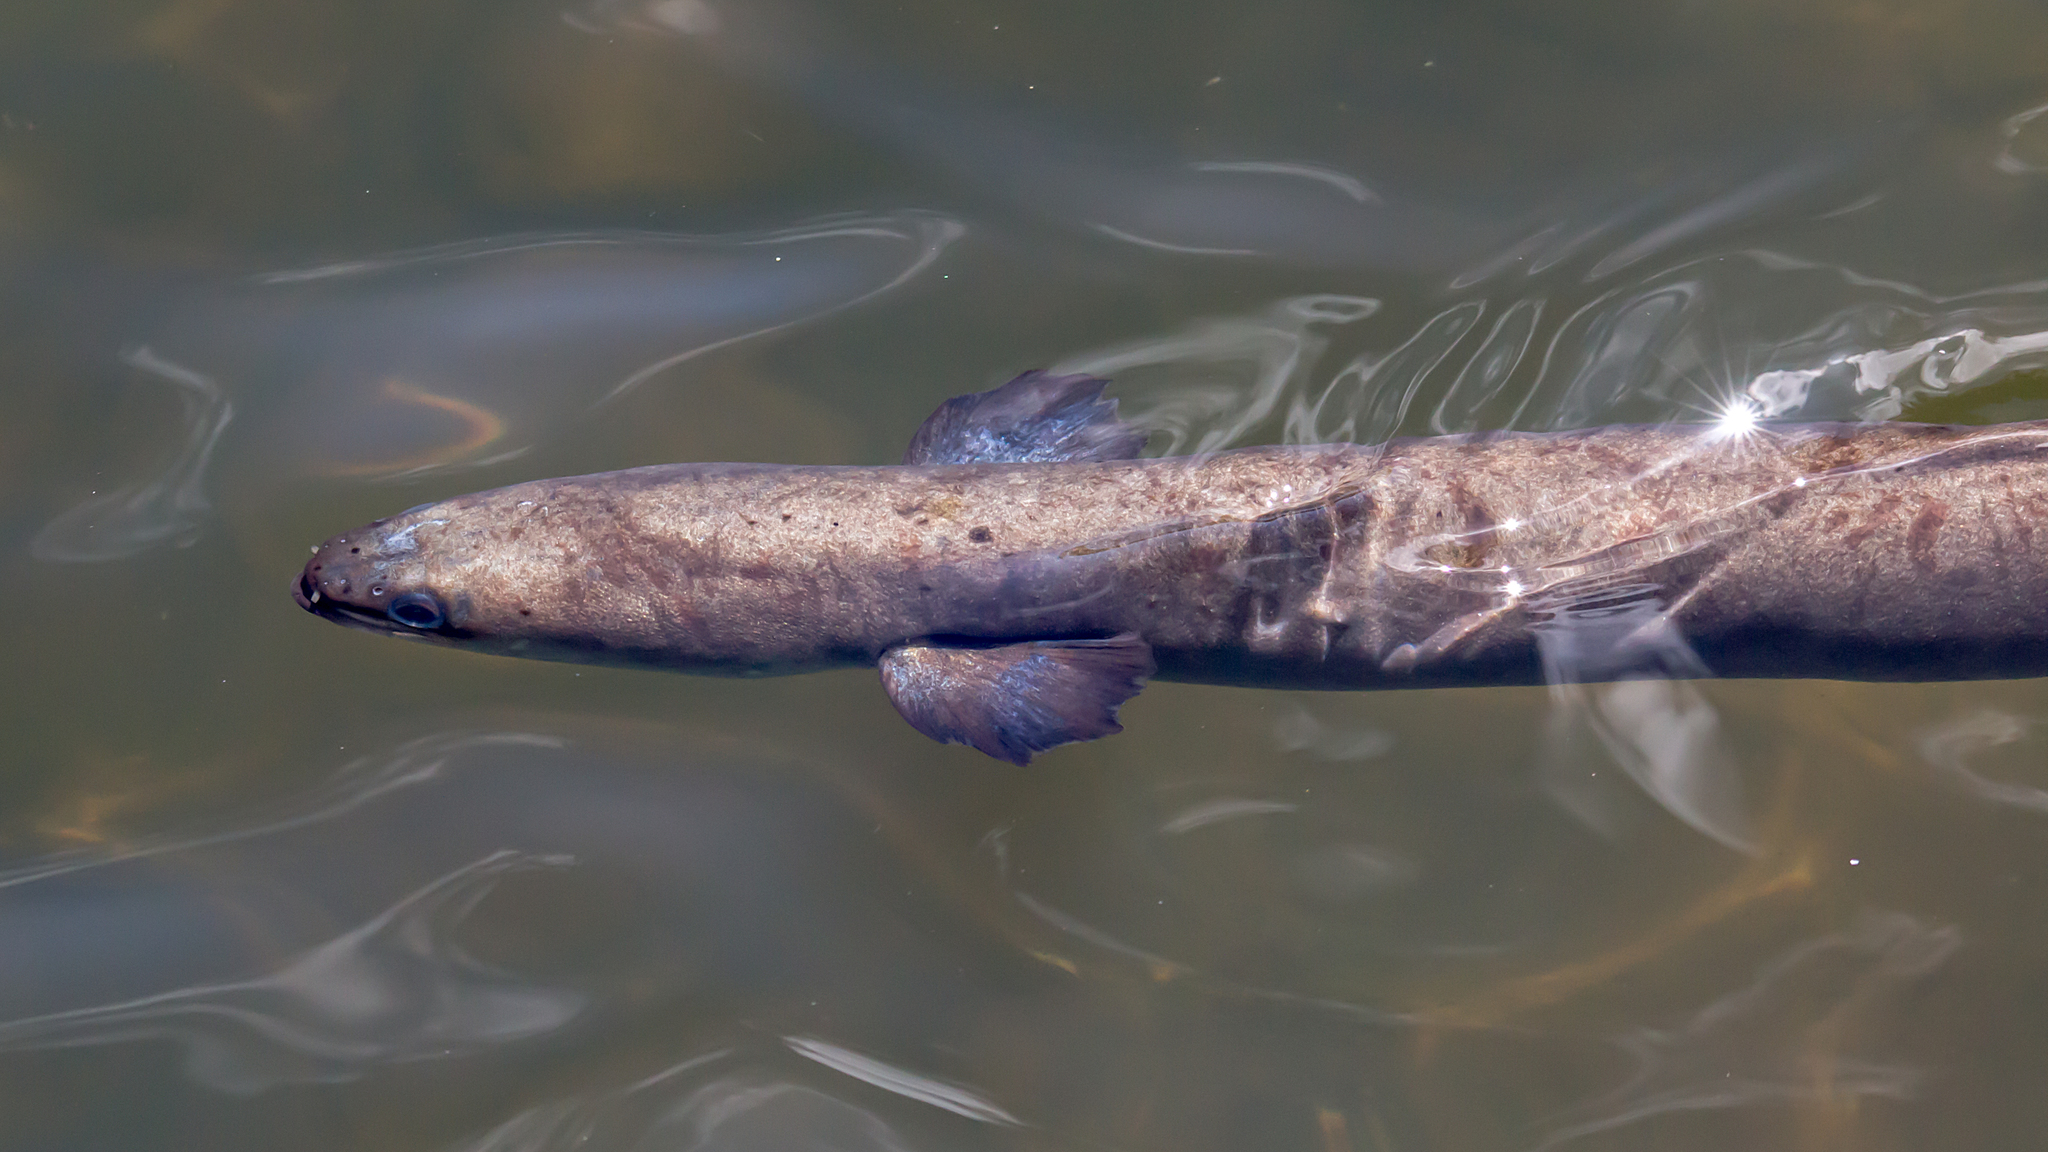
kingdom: Animalia
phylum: Chordata
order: Anguilliformes
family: Anguillidae
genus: Anguilla
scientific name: Anguilla australis
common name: Shortfin eel
